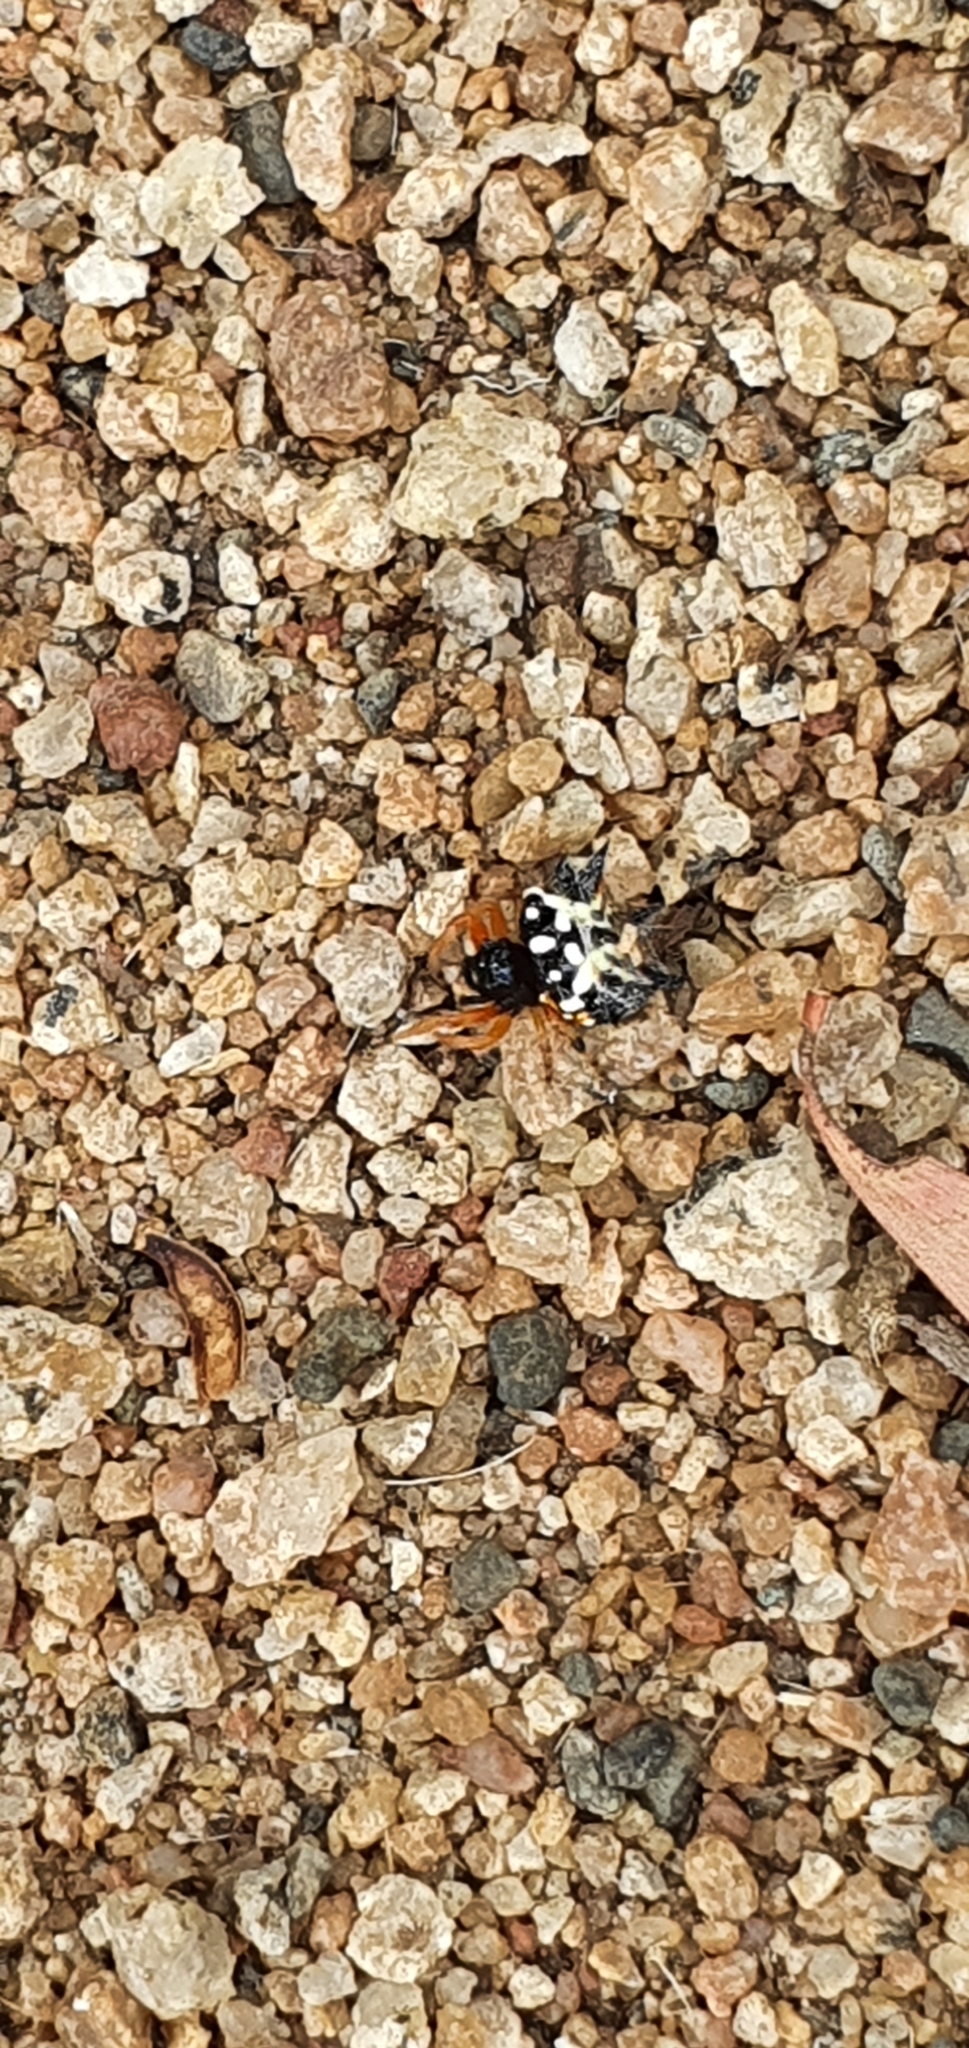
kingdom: Animalia
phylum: Arthropoda
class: Arachnida
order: Araneae
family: Araneidae
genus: Austracantha
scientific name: Austracantha minax
